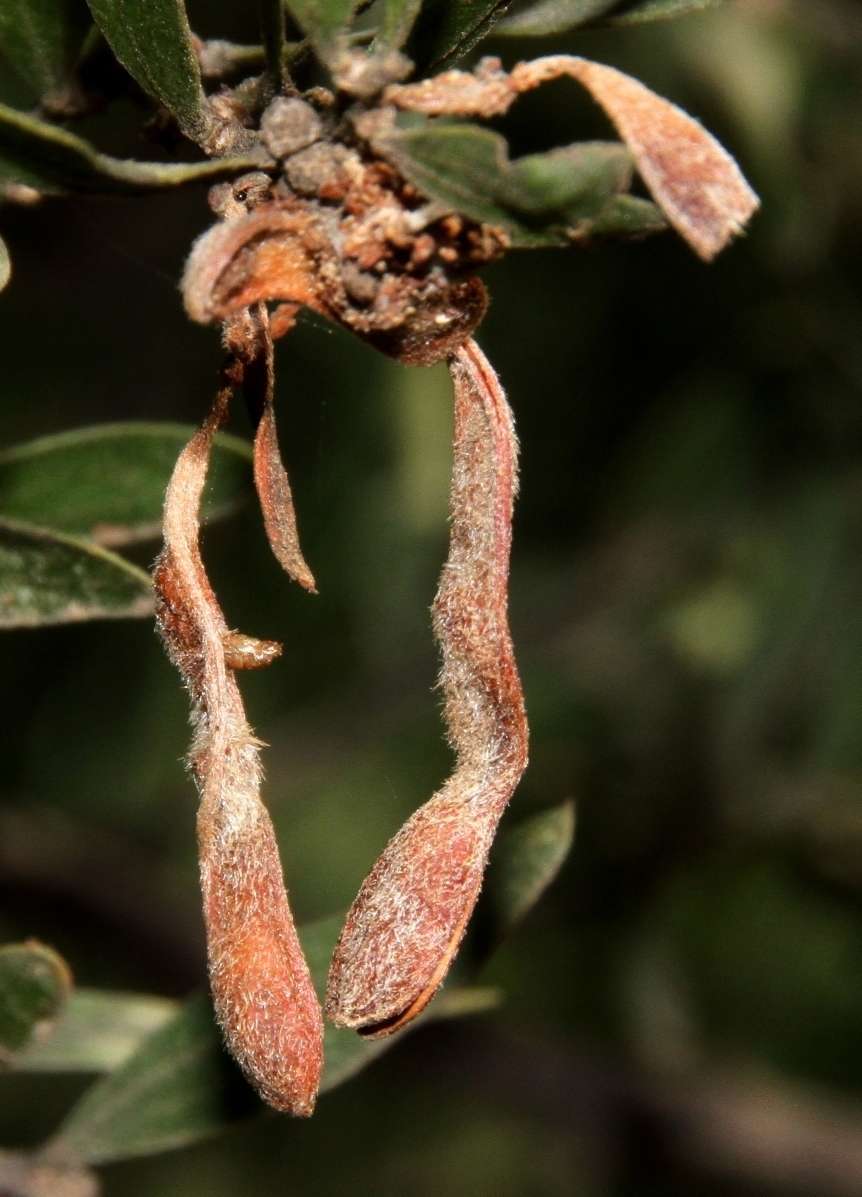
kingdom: Plantae
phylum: Tracheophyta
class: Magnoliopsida
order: Fabales
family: Fabaceae
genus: Acacia
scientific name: Acacia rostriformis
